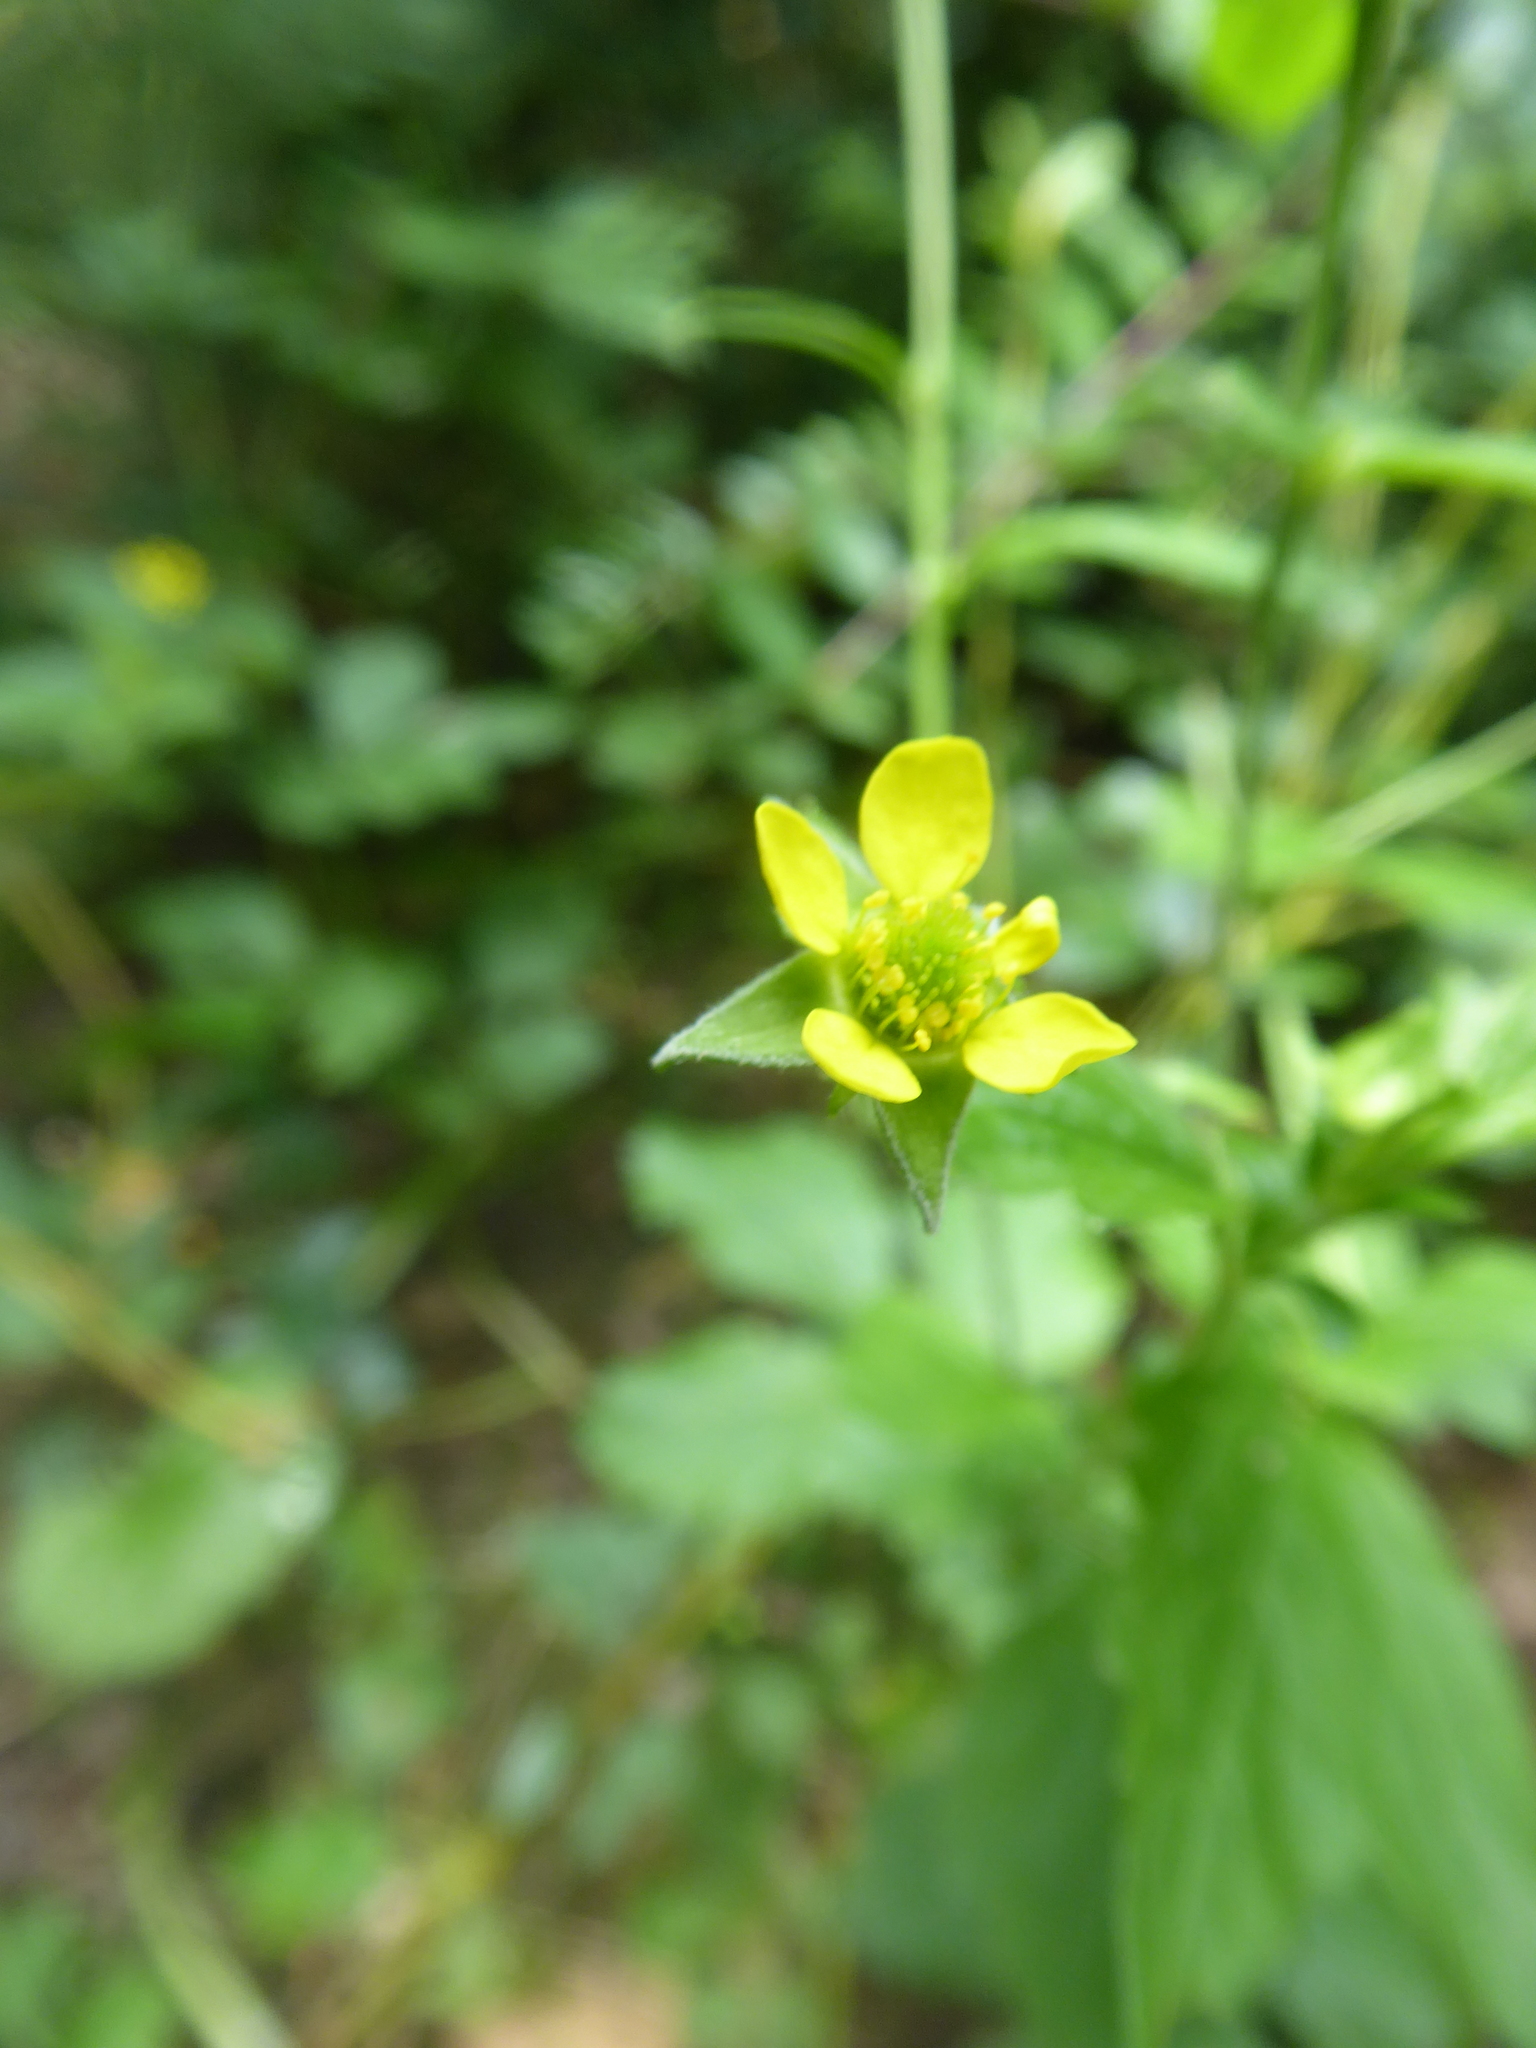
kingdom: Plantae
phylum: Tracheophyta
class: Magnoliopsida
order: Rosales
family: Rosaceae
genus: Geum
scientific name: Geum urbanum
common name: Wood avens
